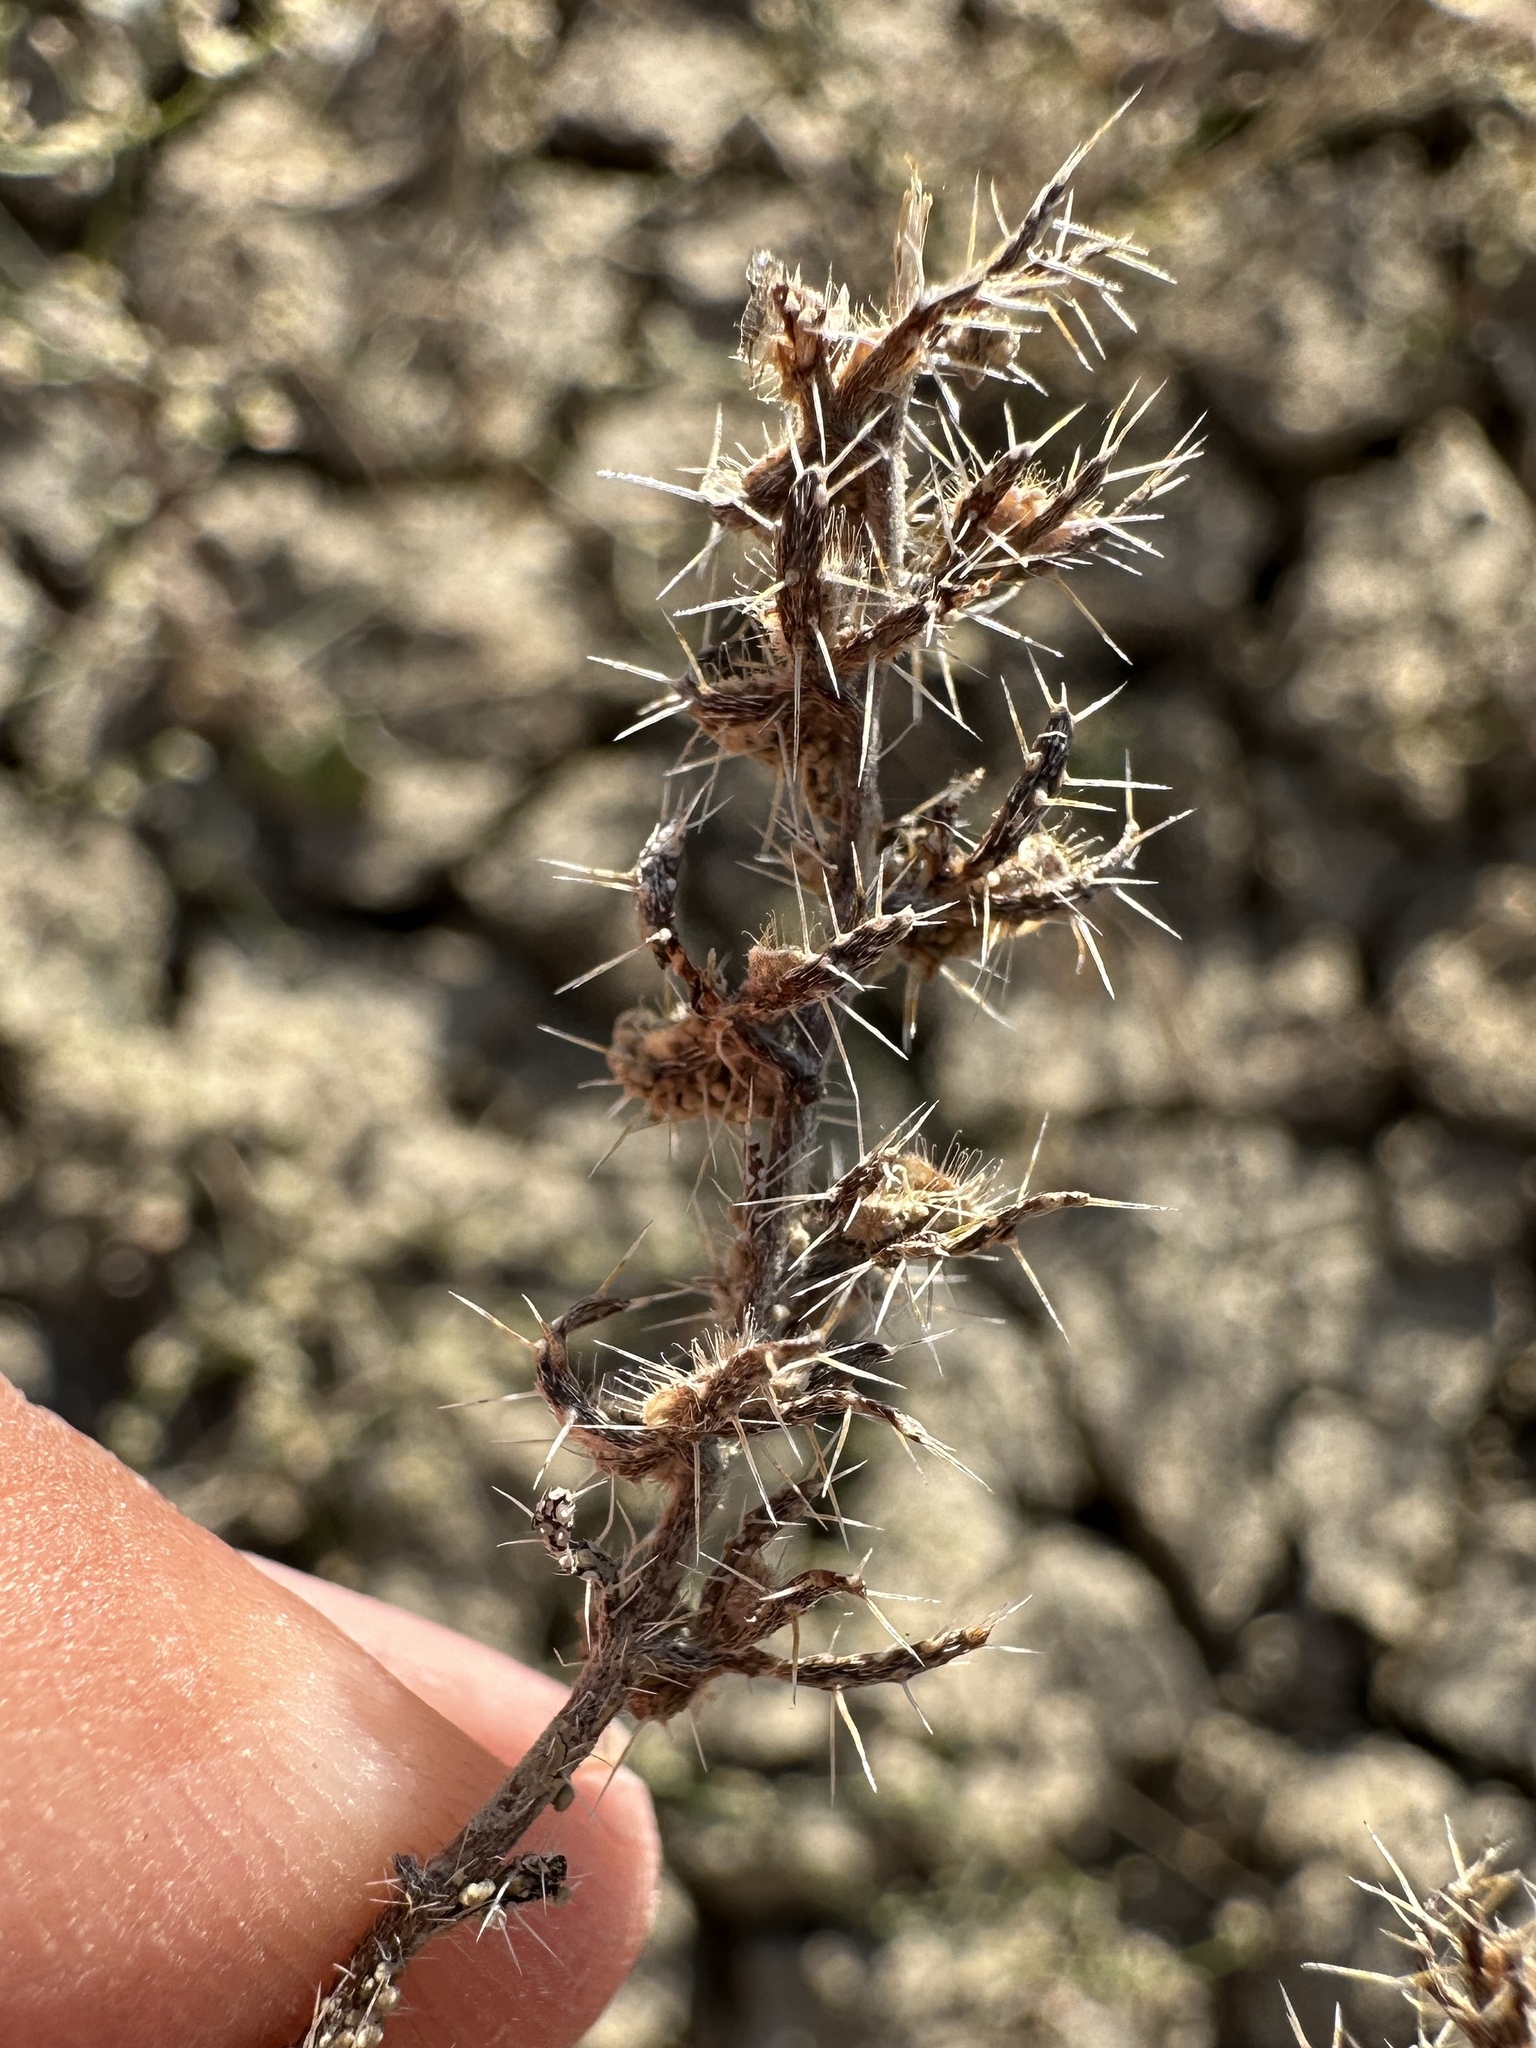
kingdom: Plantae
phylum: Tracheophyta
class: Magnoliopsida
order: Boraginales
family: Boraginaceae
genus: Pectocarya
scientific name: Pectocarya setosa
